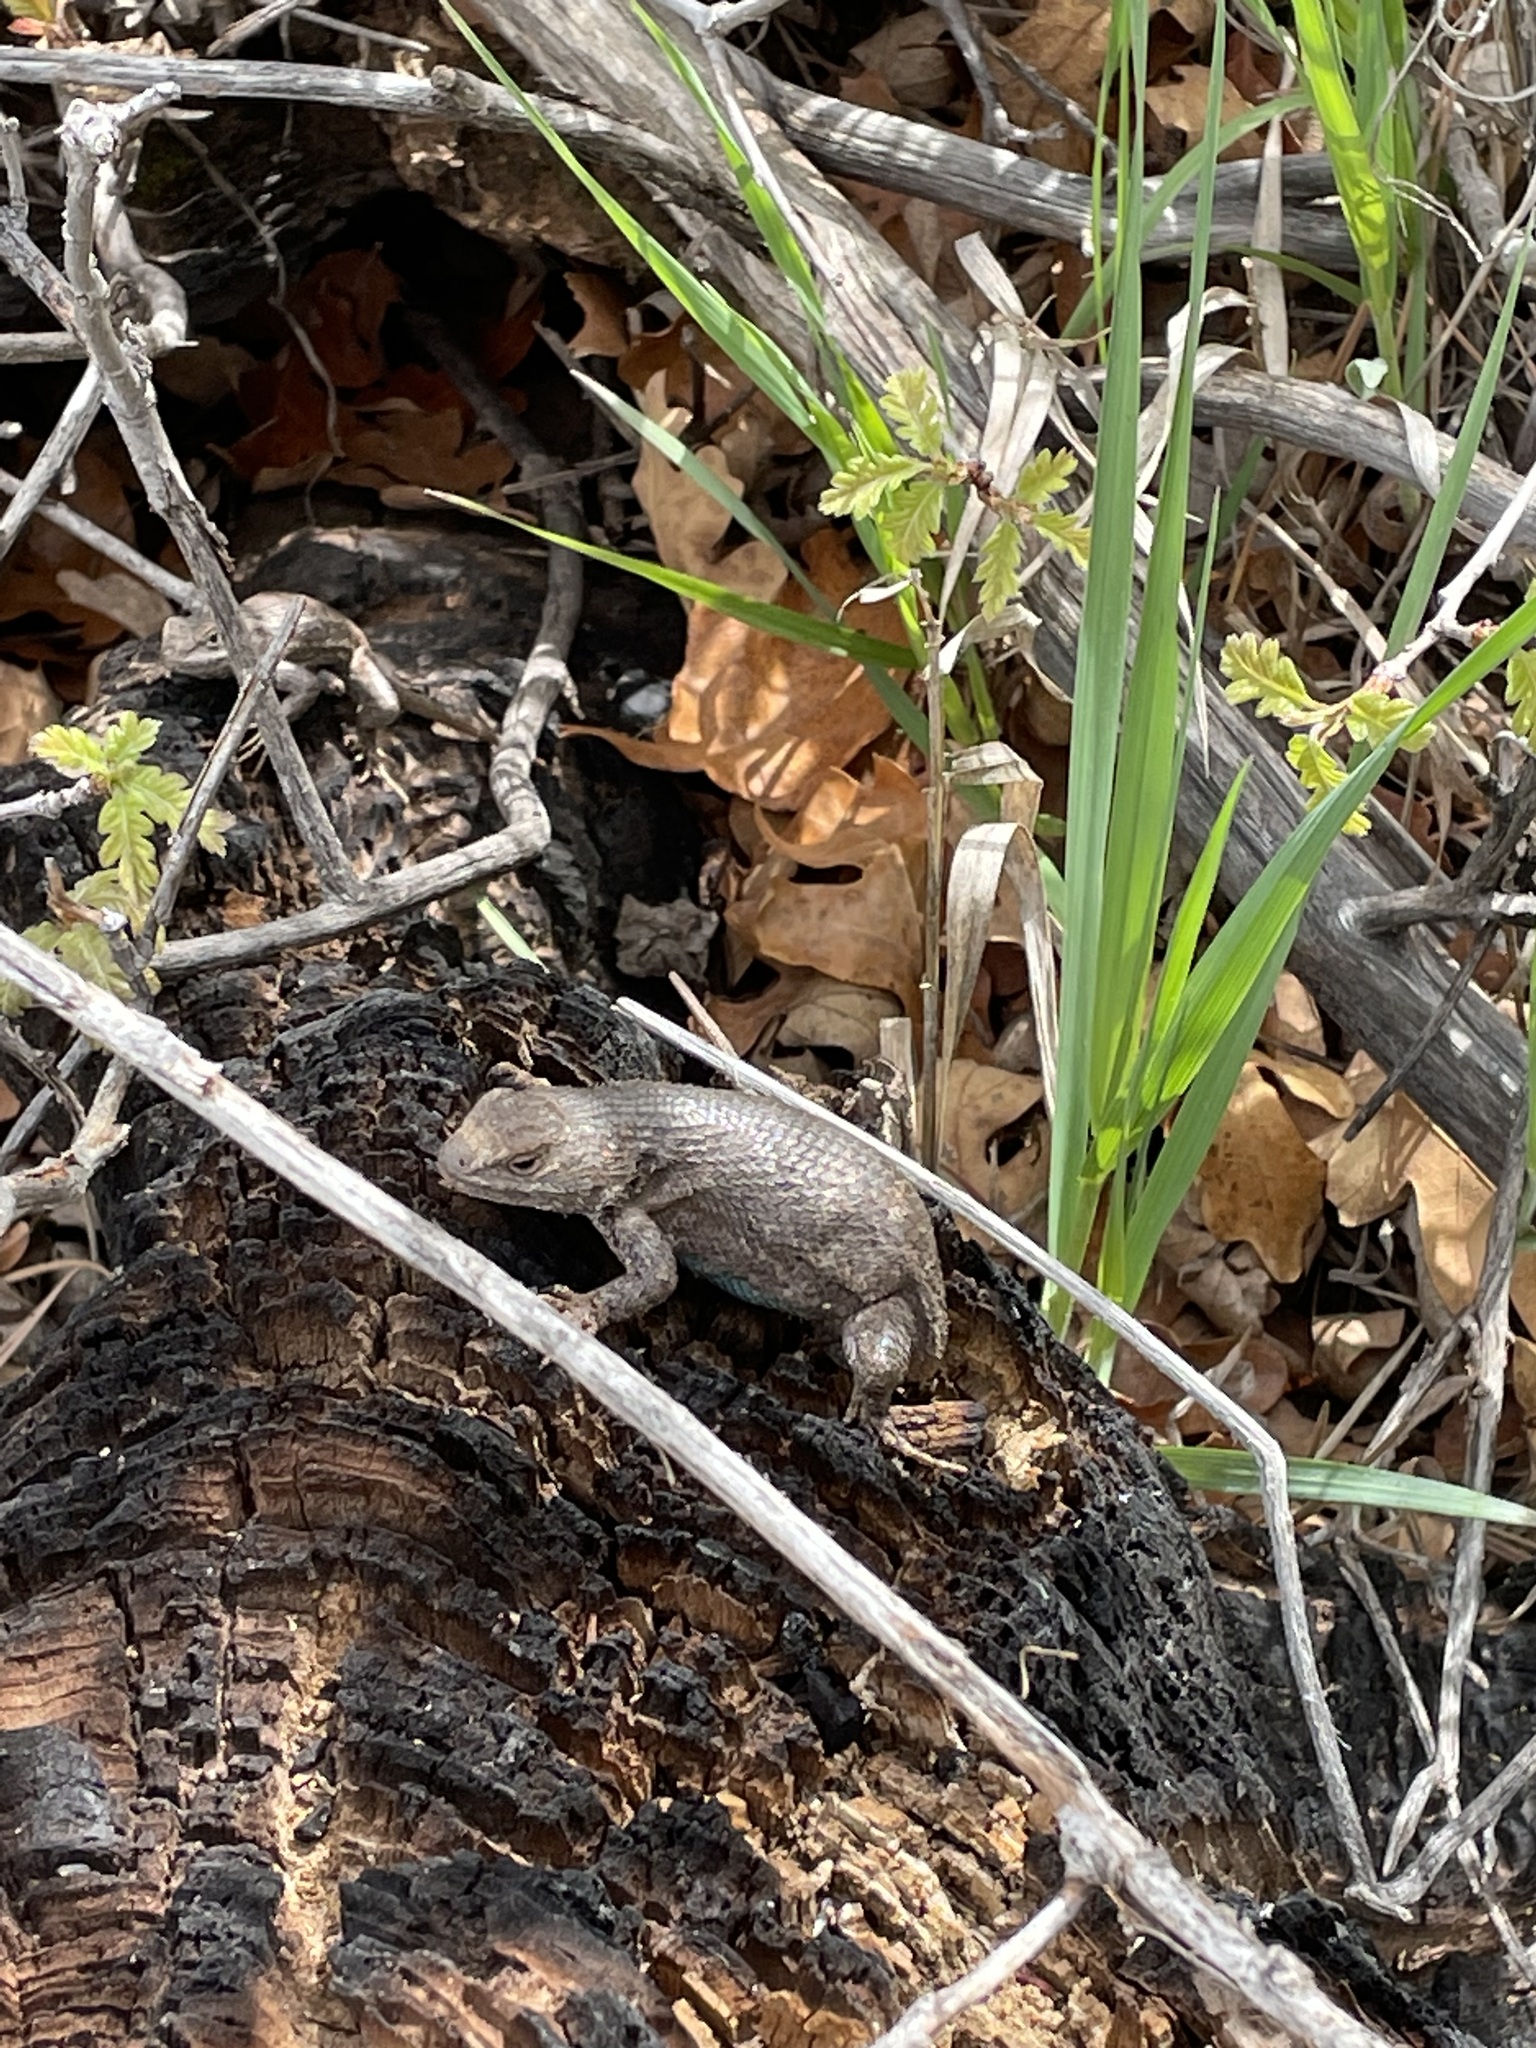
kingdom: Animalia
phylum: Chordata
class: Squamata
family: Phrynosomatidae
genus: Sceloporus
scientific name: Sceloporus
